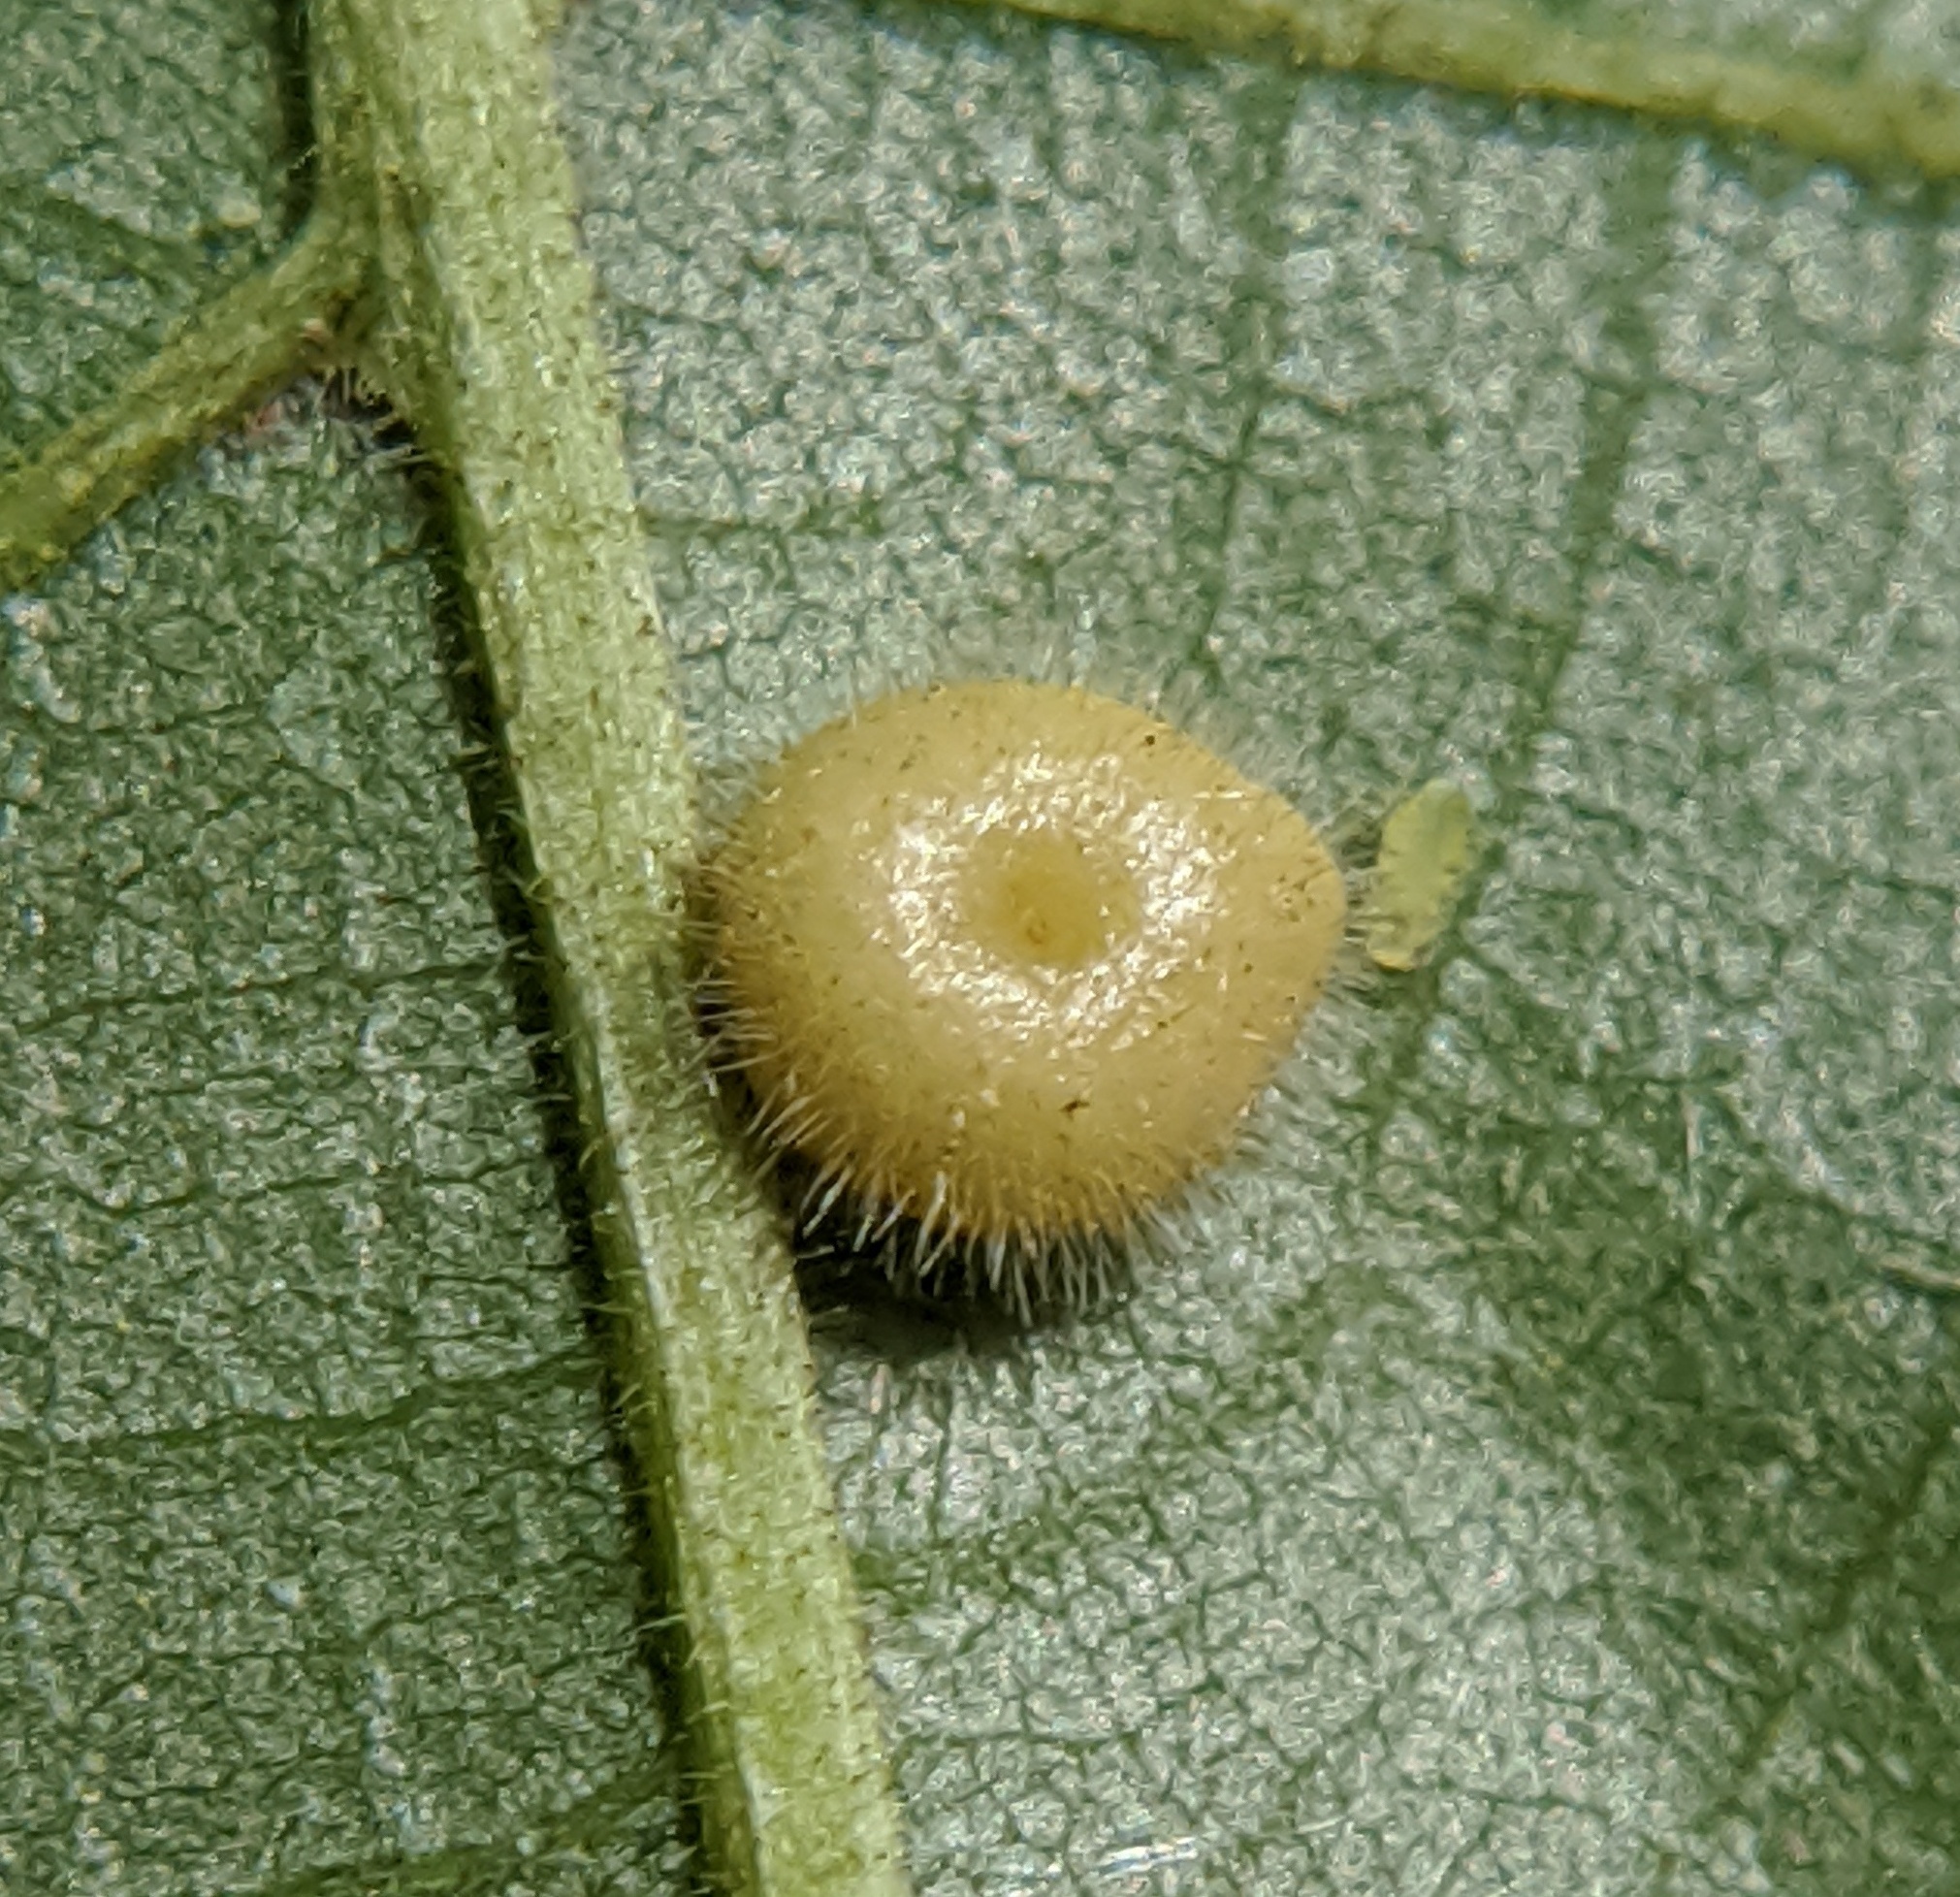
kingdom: Animalia
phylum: Arthropoda
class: Insecta
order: Diptera
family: Cecidomyiidae
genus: Caryomyia
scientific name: Caryomyia thompsoni
